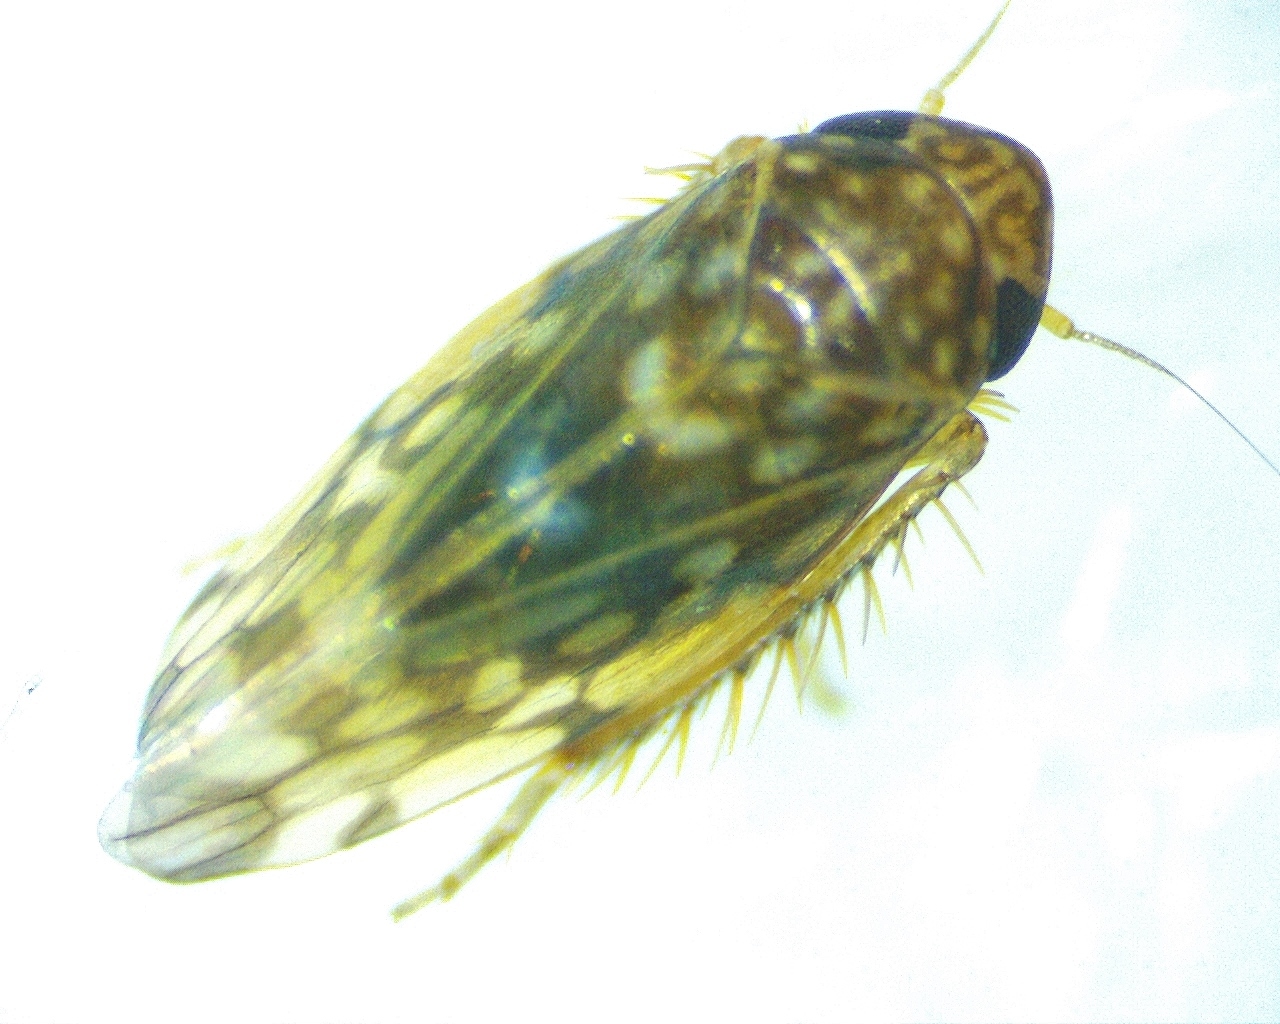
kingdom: Animalia
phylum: Arthropoda
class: Insecta
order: Hemiptera
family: Cicadellidae
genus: Xestocephalus
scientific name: Xestocephalus superbus
